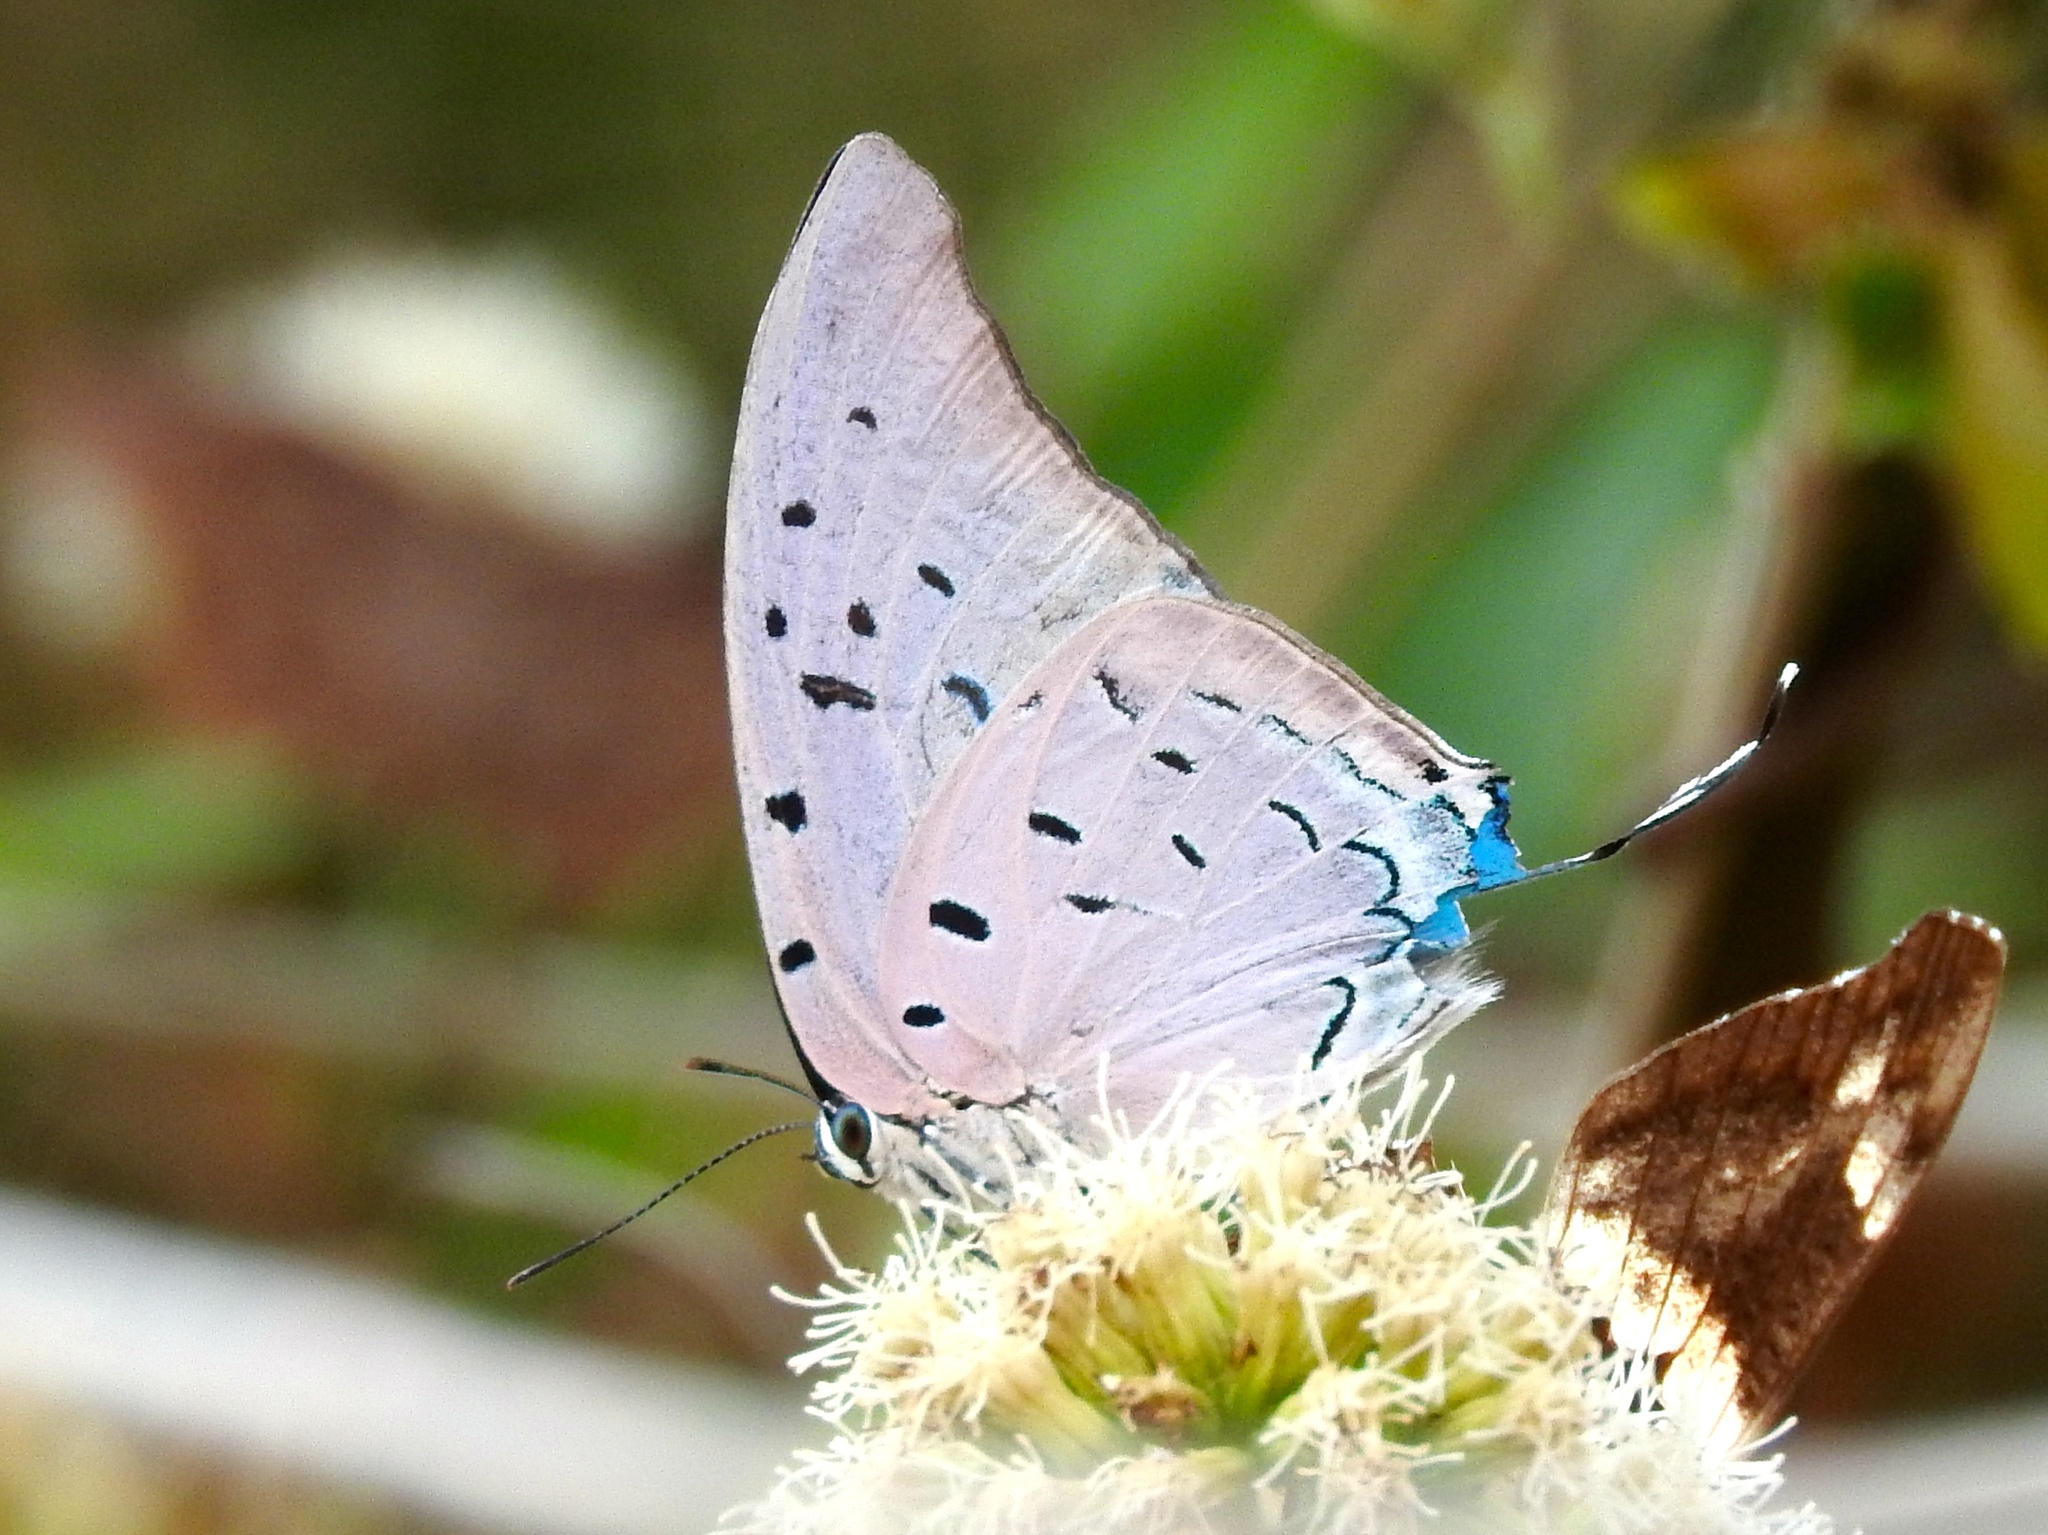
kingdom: Animalia
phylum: Arthropoda
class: Insecta
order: Lepidoptera
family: Lycaenidae
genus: Pseudolycaena
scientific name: Pseudolycaena damo
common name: Sky-blue hairstreak
